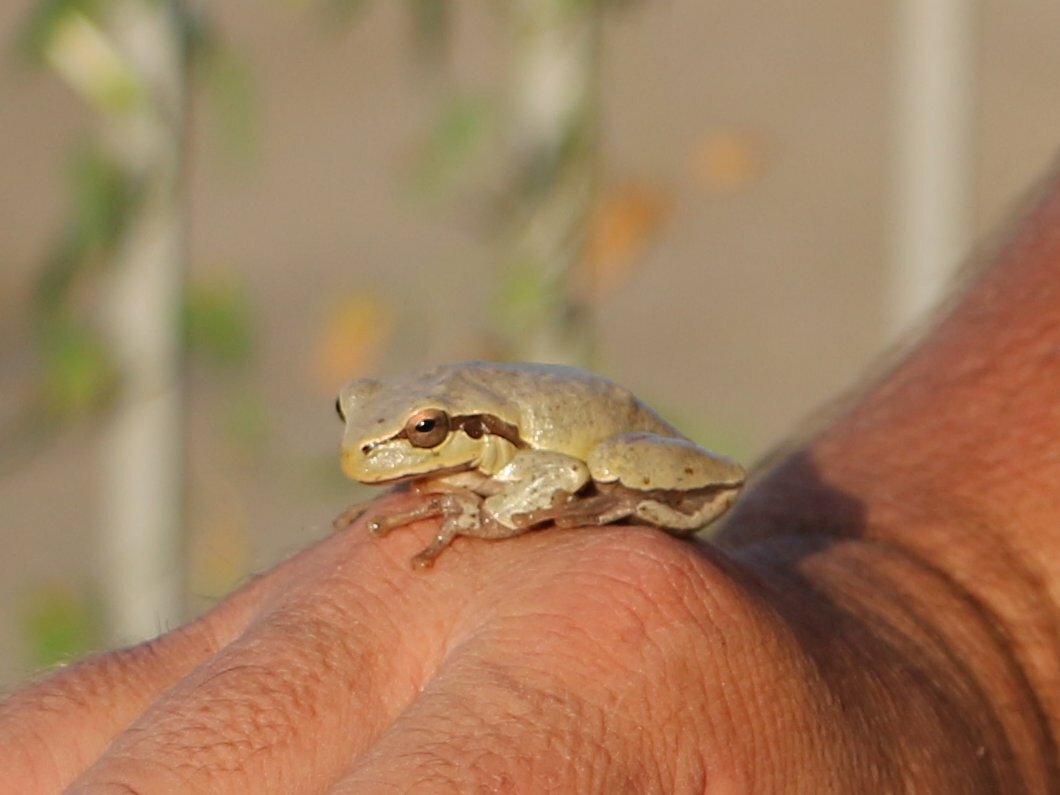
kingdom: Animalia
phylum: Chordata
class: Amphibia
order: Anura
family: Hylidae
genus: Hyla
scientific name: Hyla orientalis
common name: Caucasian treefrog
